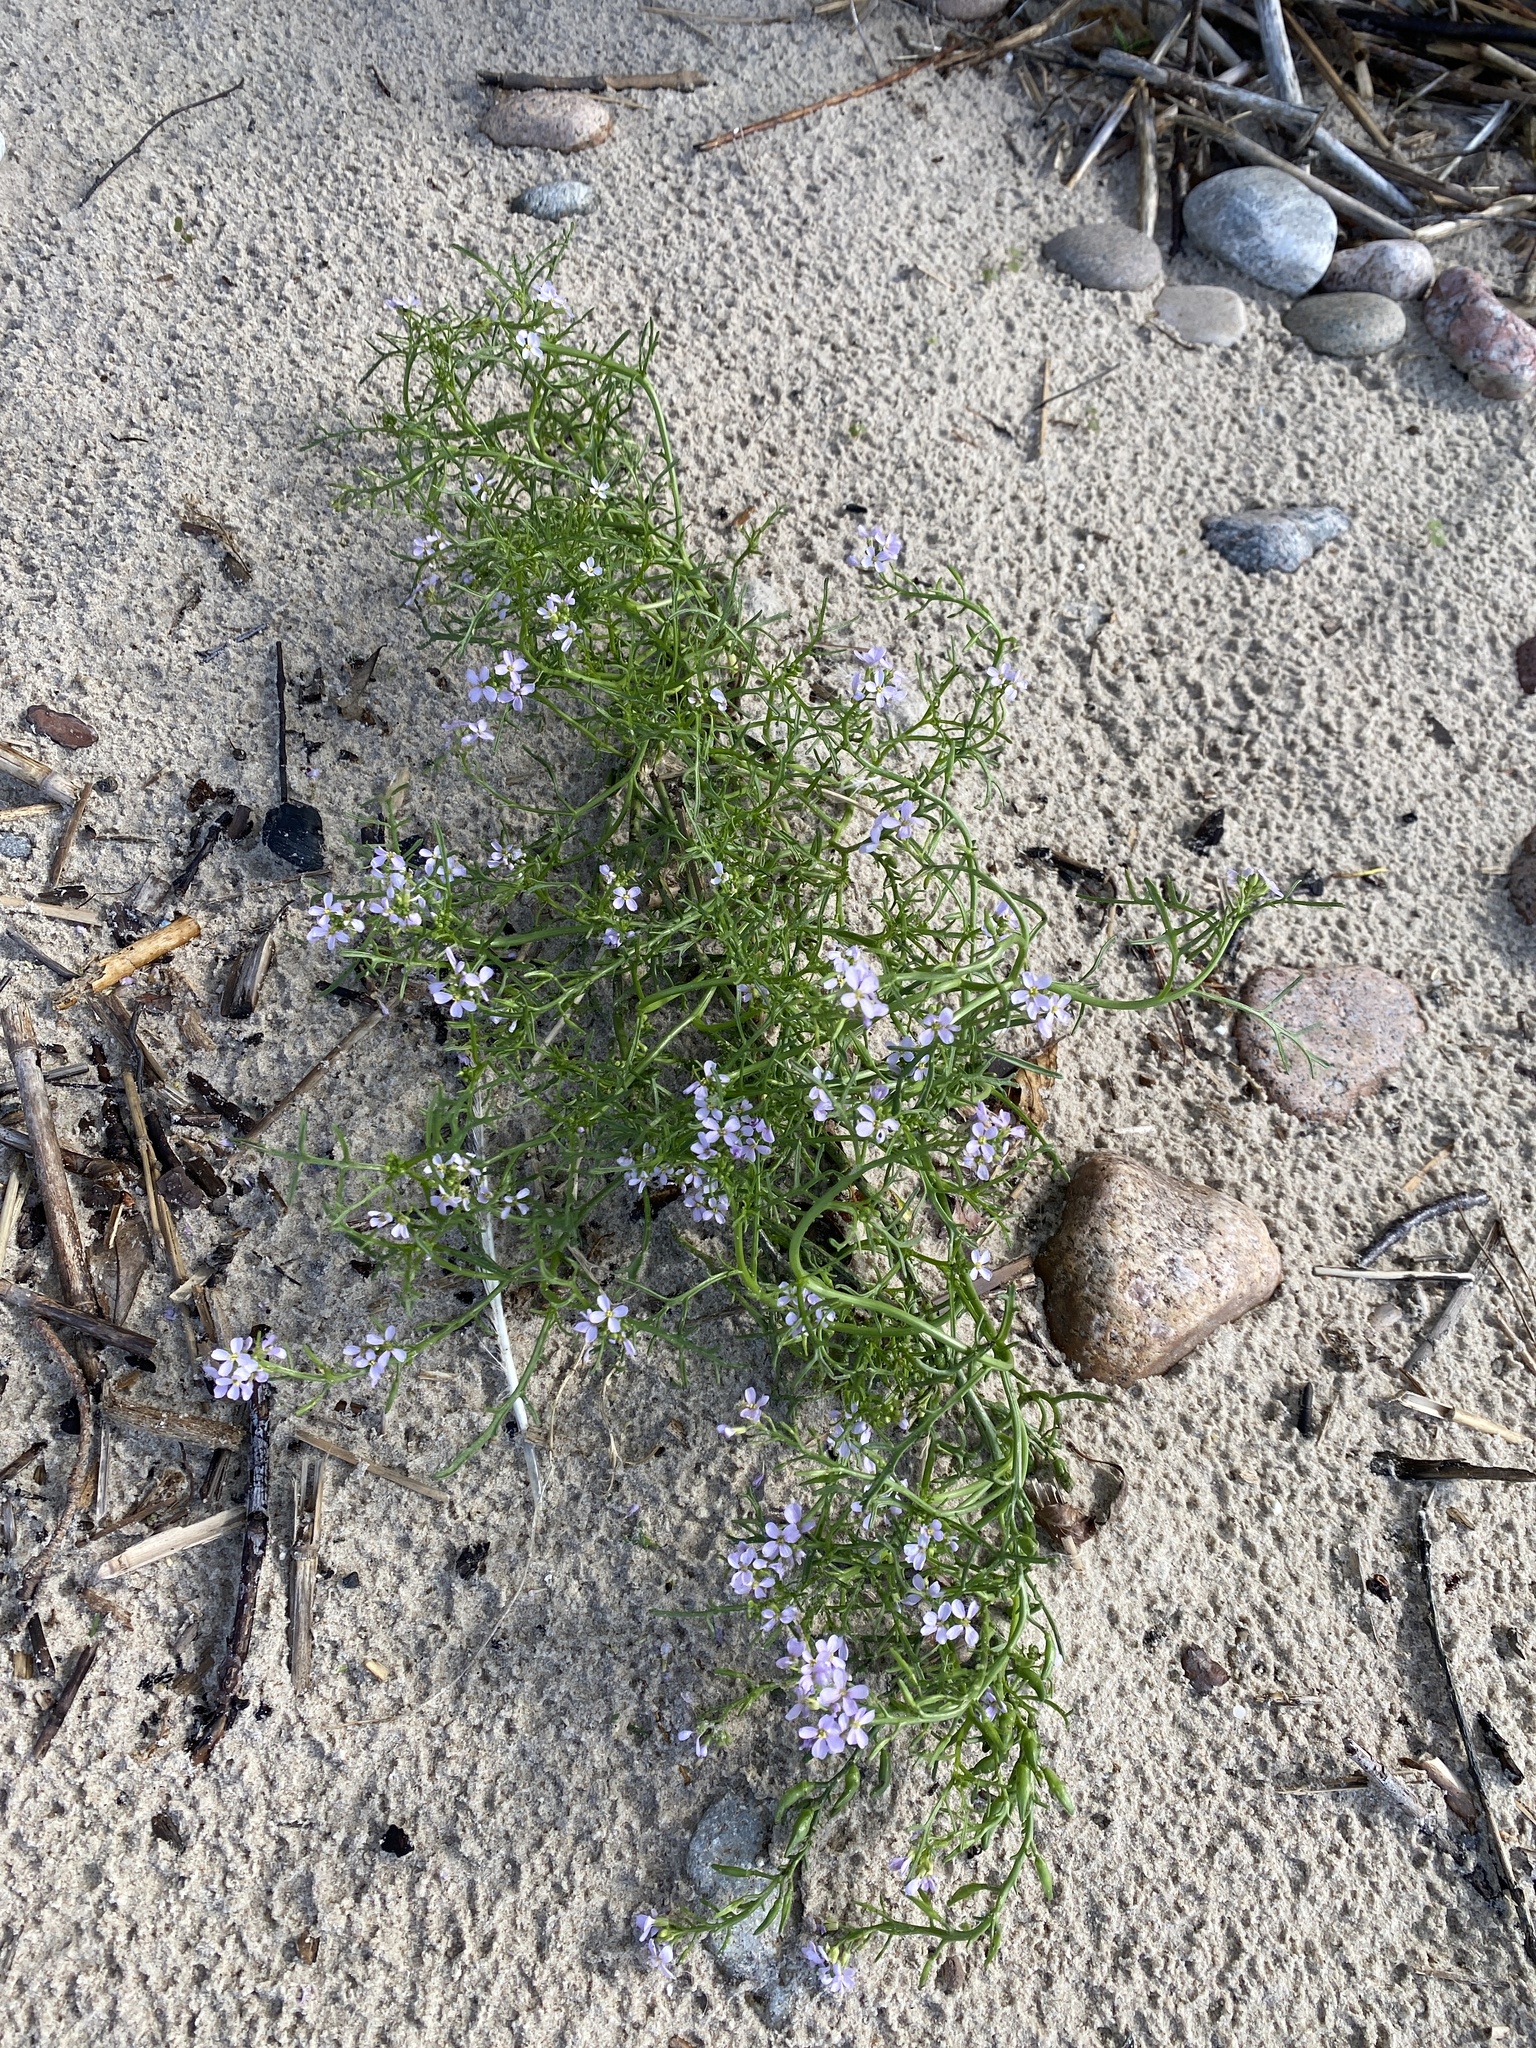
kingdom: Plantae
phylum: Tracheophyta
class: Magnoliopsida
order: Brassicales
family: Brassicaceae
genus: Cakile
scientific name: Cakile maritima
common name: Sea rocket
